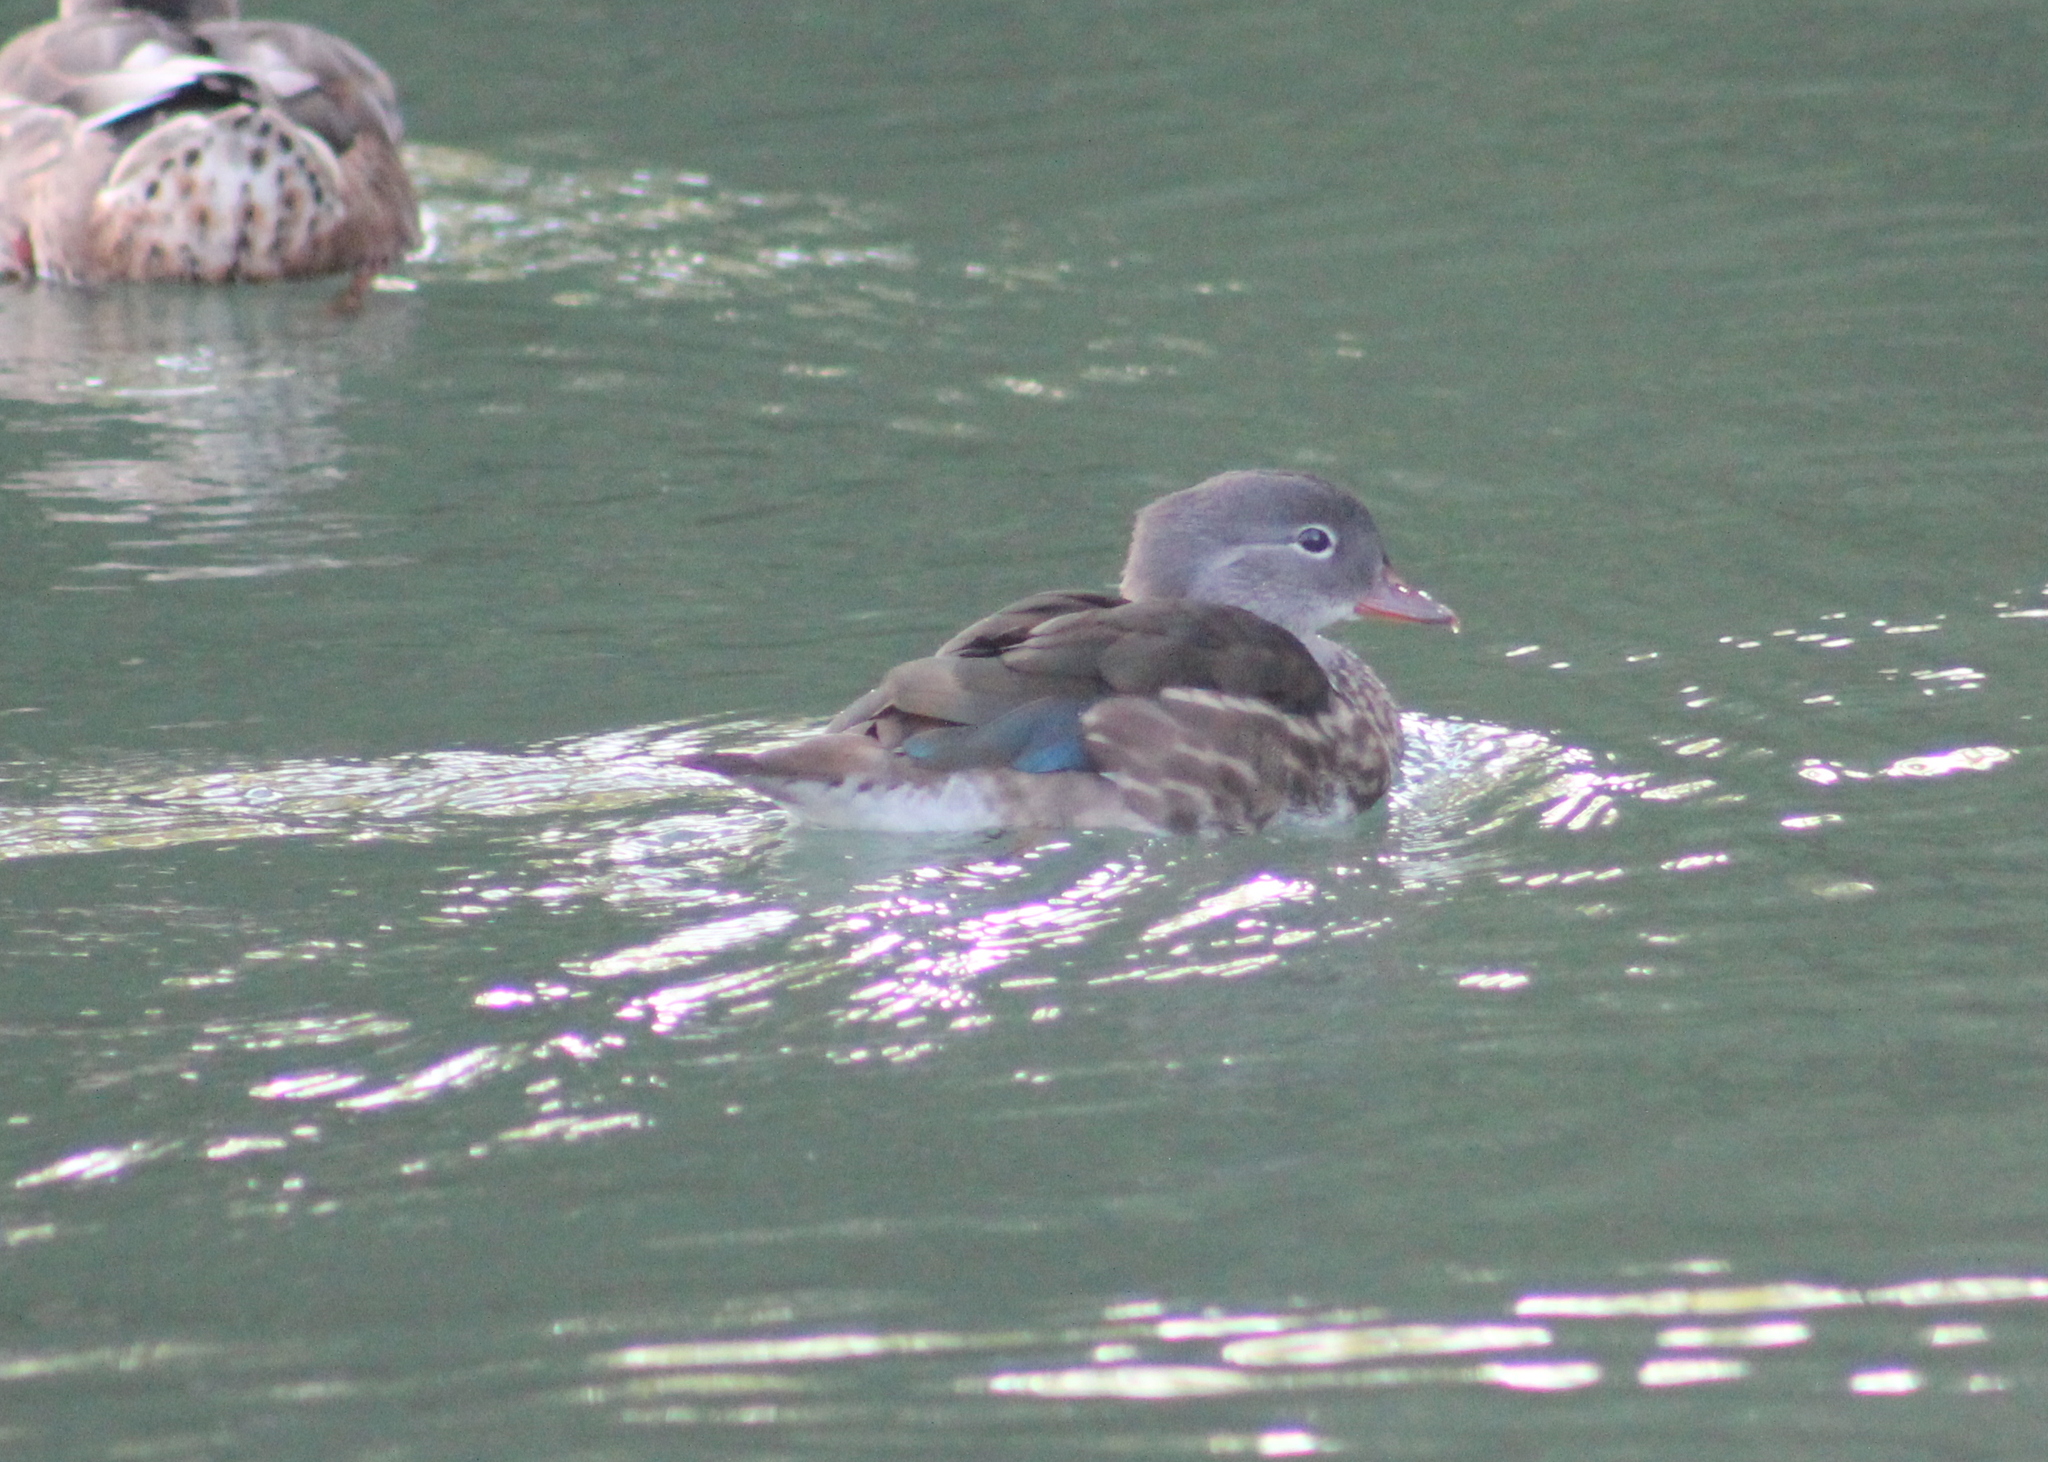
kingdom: Animalia
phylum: Chordata
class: Aves
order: Anseriformes
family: Anatidae
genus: Aix
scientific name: Aix galericulata
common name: Mandarin duck
